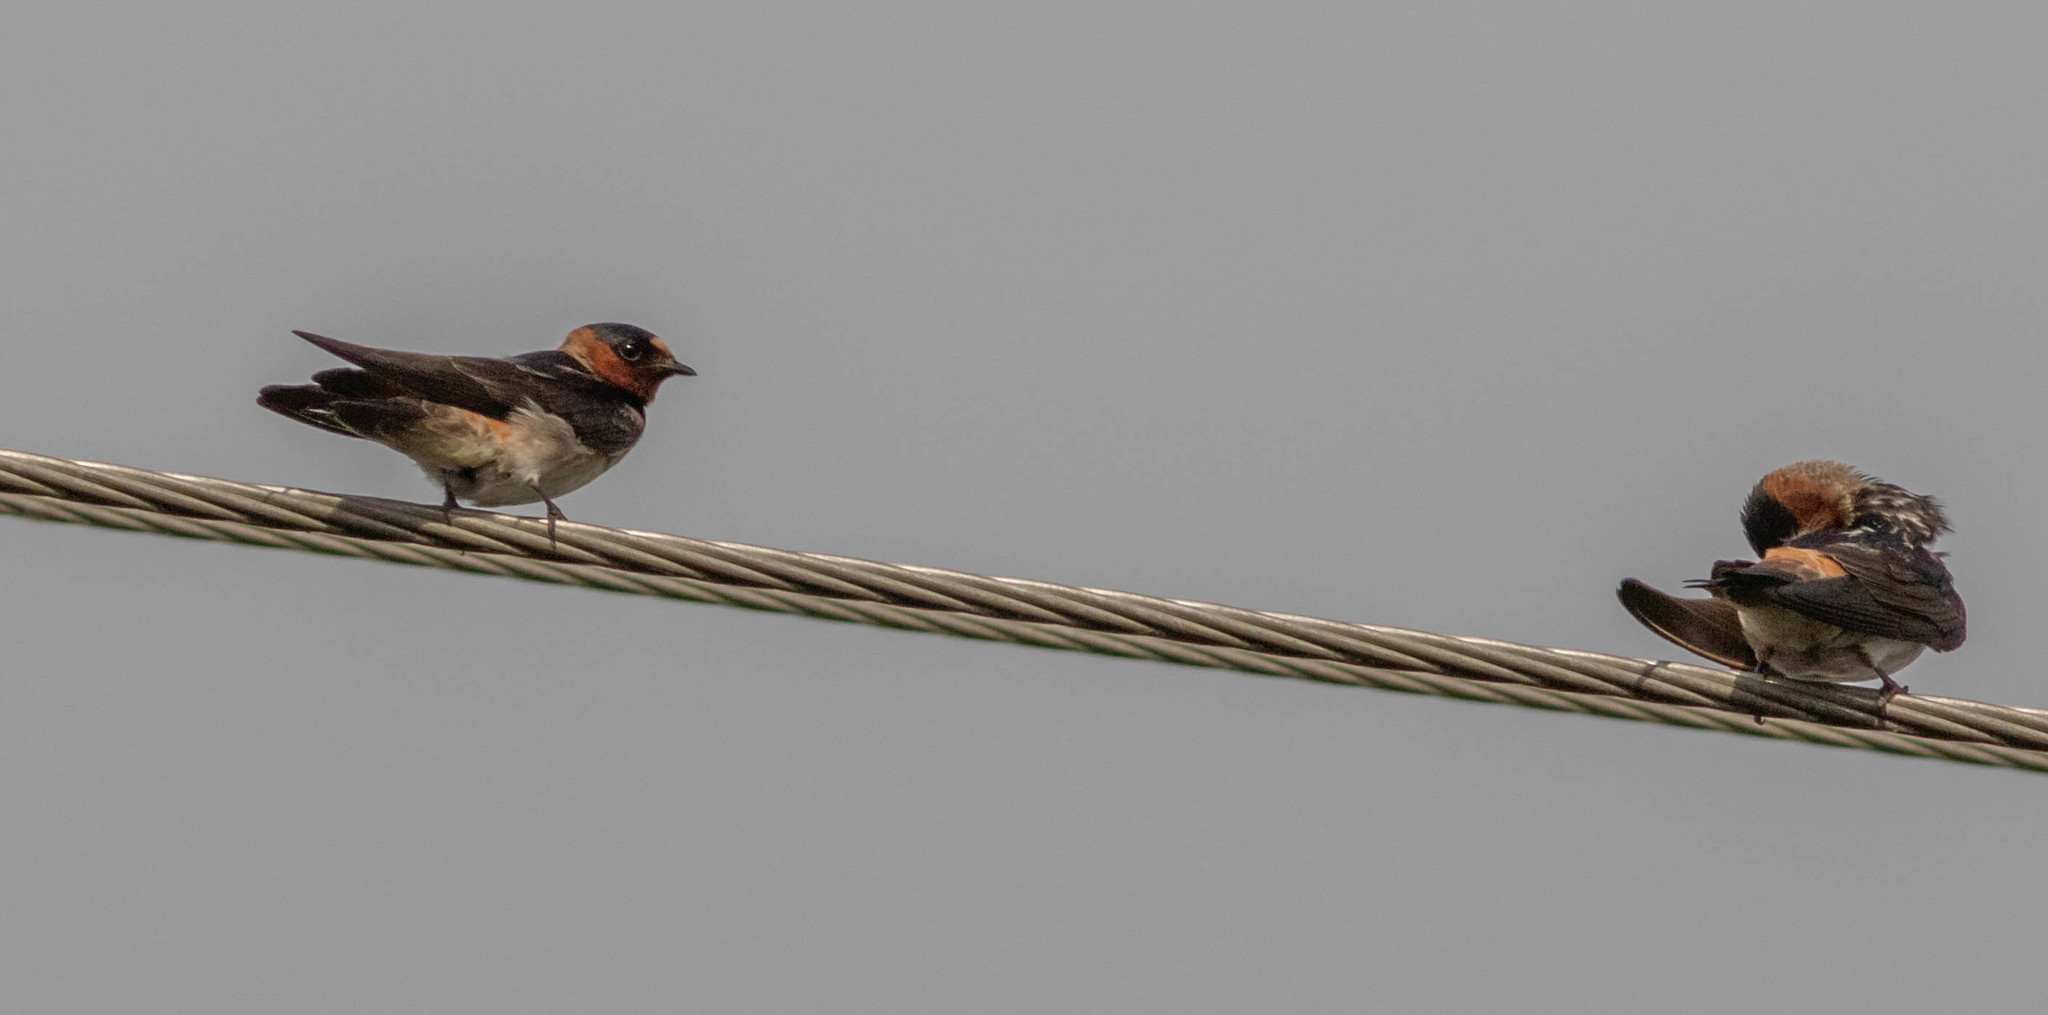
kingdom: Animalia
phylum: Chordata
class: Aves
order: Passeriformes
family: Hirundinidae
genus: Petrochelidon
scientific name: Petrochelidon pyrrhonota
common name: American cliff swallow
